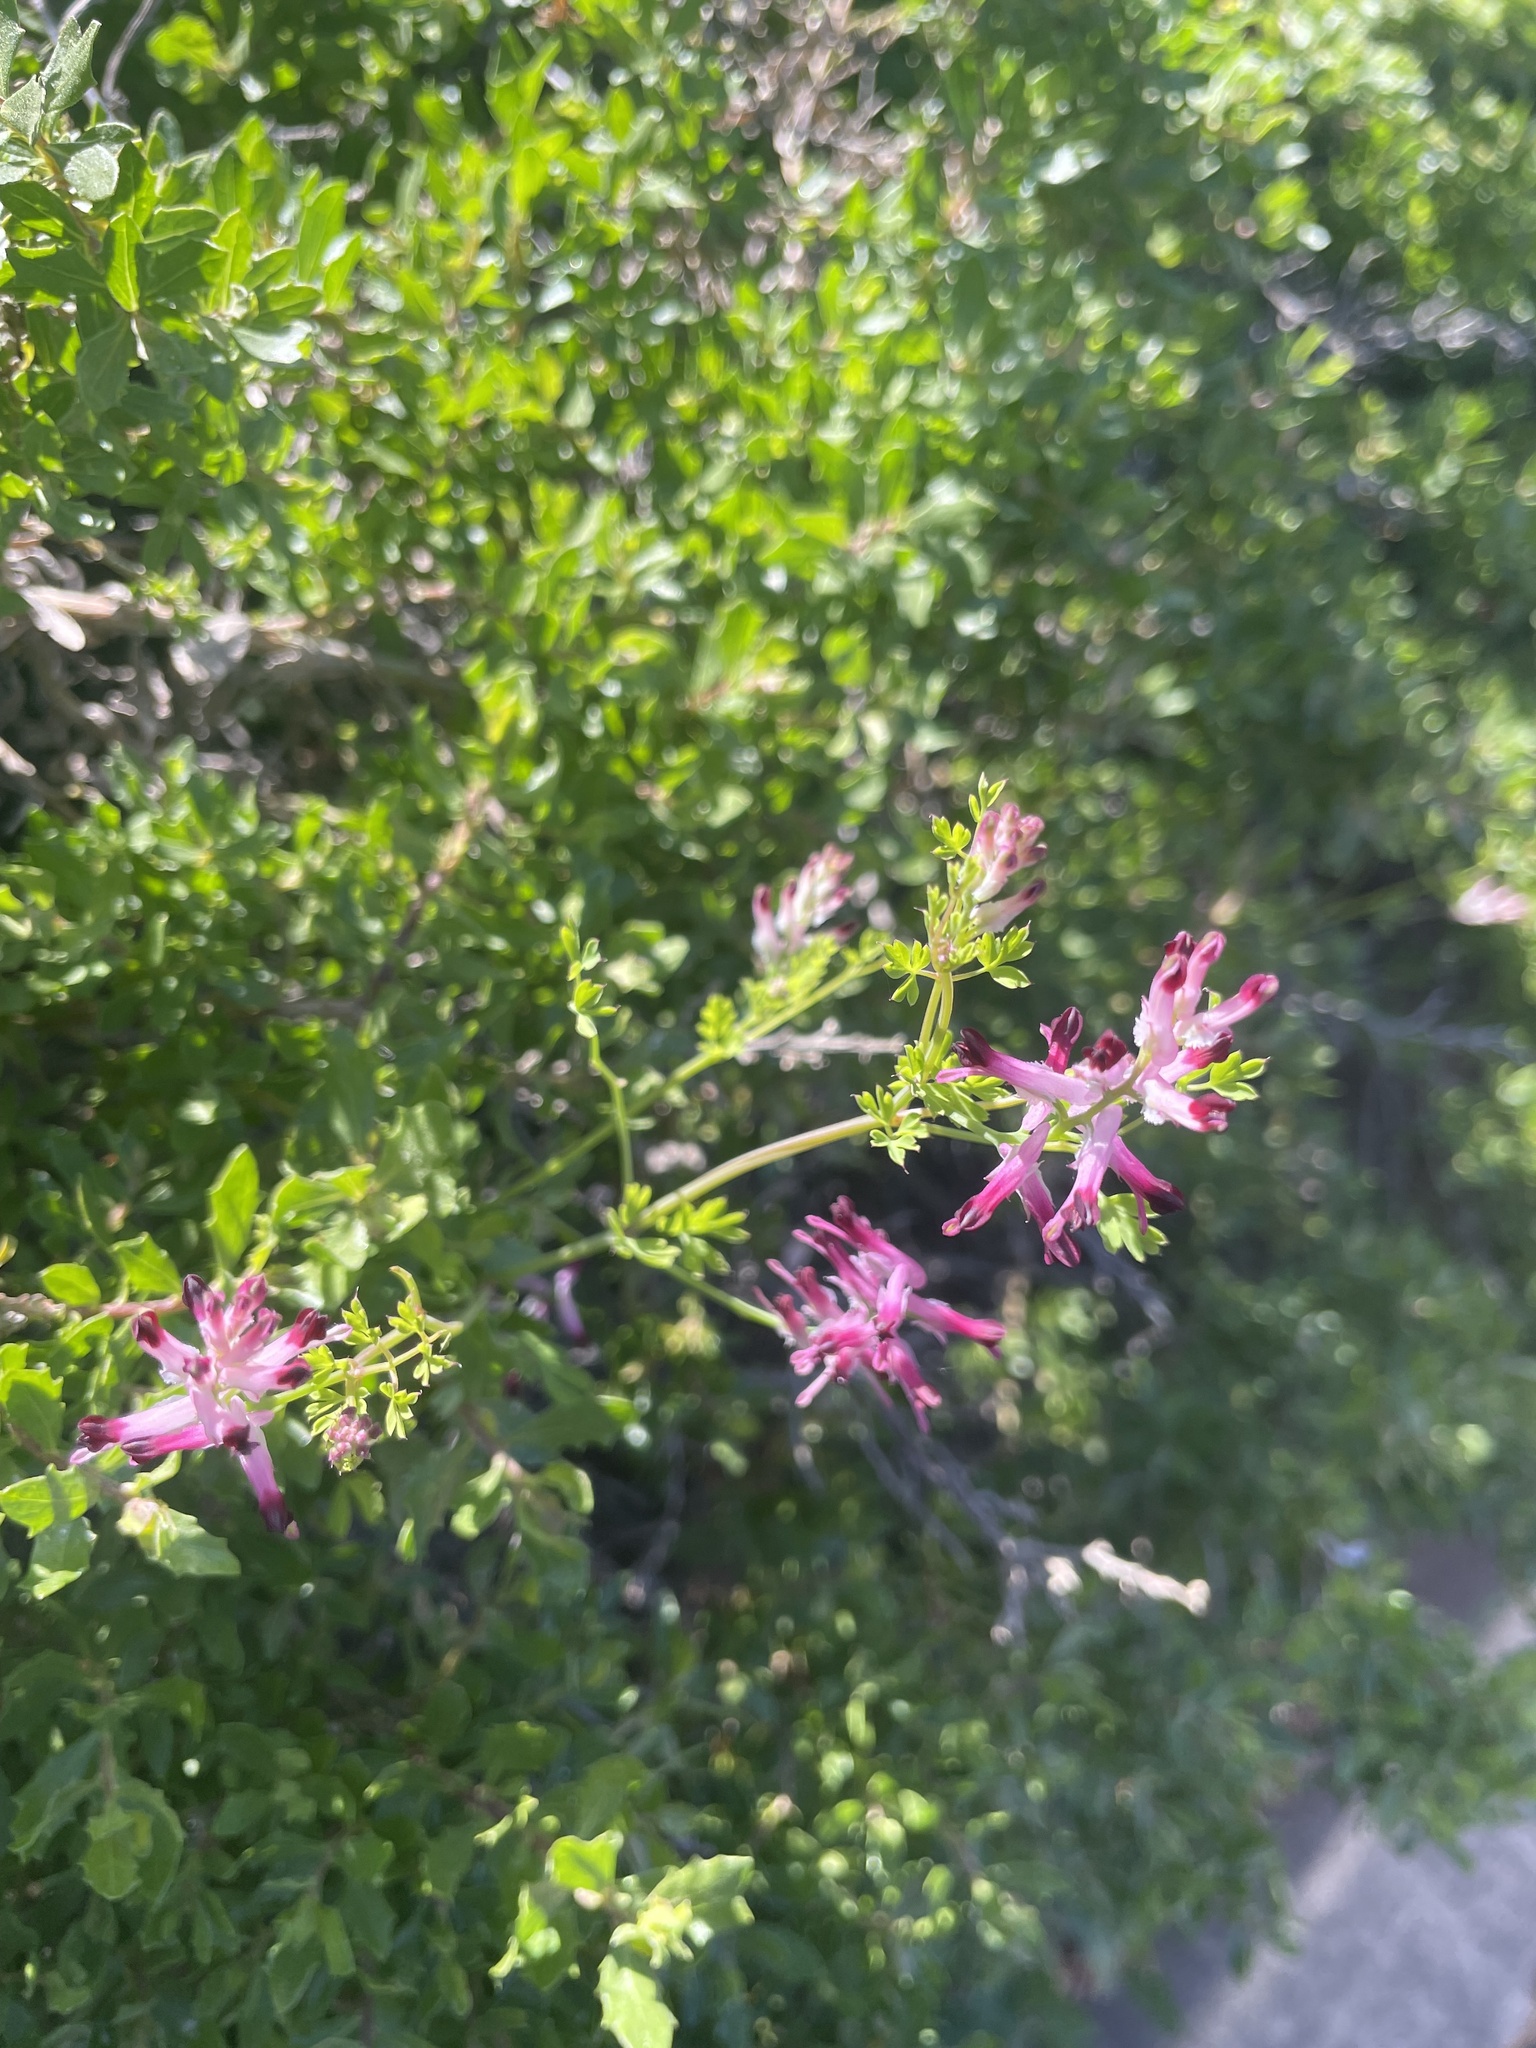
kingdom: Plantae
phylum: Tracheophyta
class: Magnoliopsida
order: Ranunculales
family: Papaveraceae
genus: Fumaria
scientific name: Fumaria muralis
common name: Common ramping-fumitory
